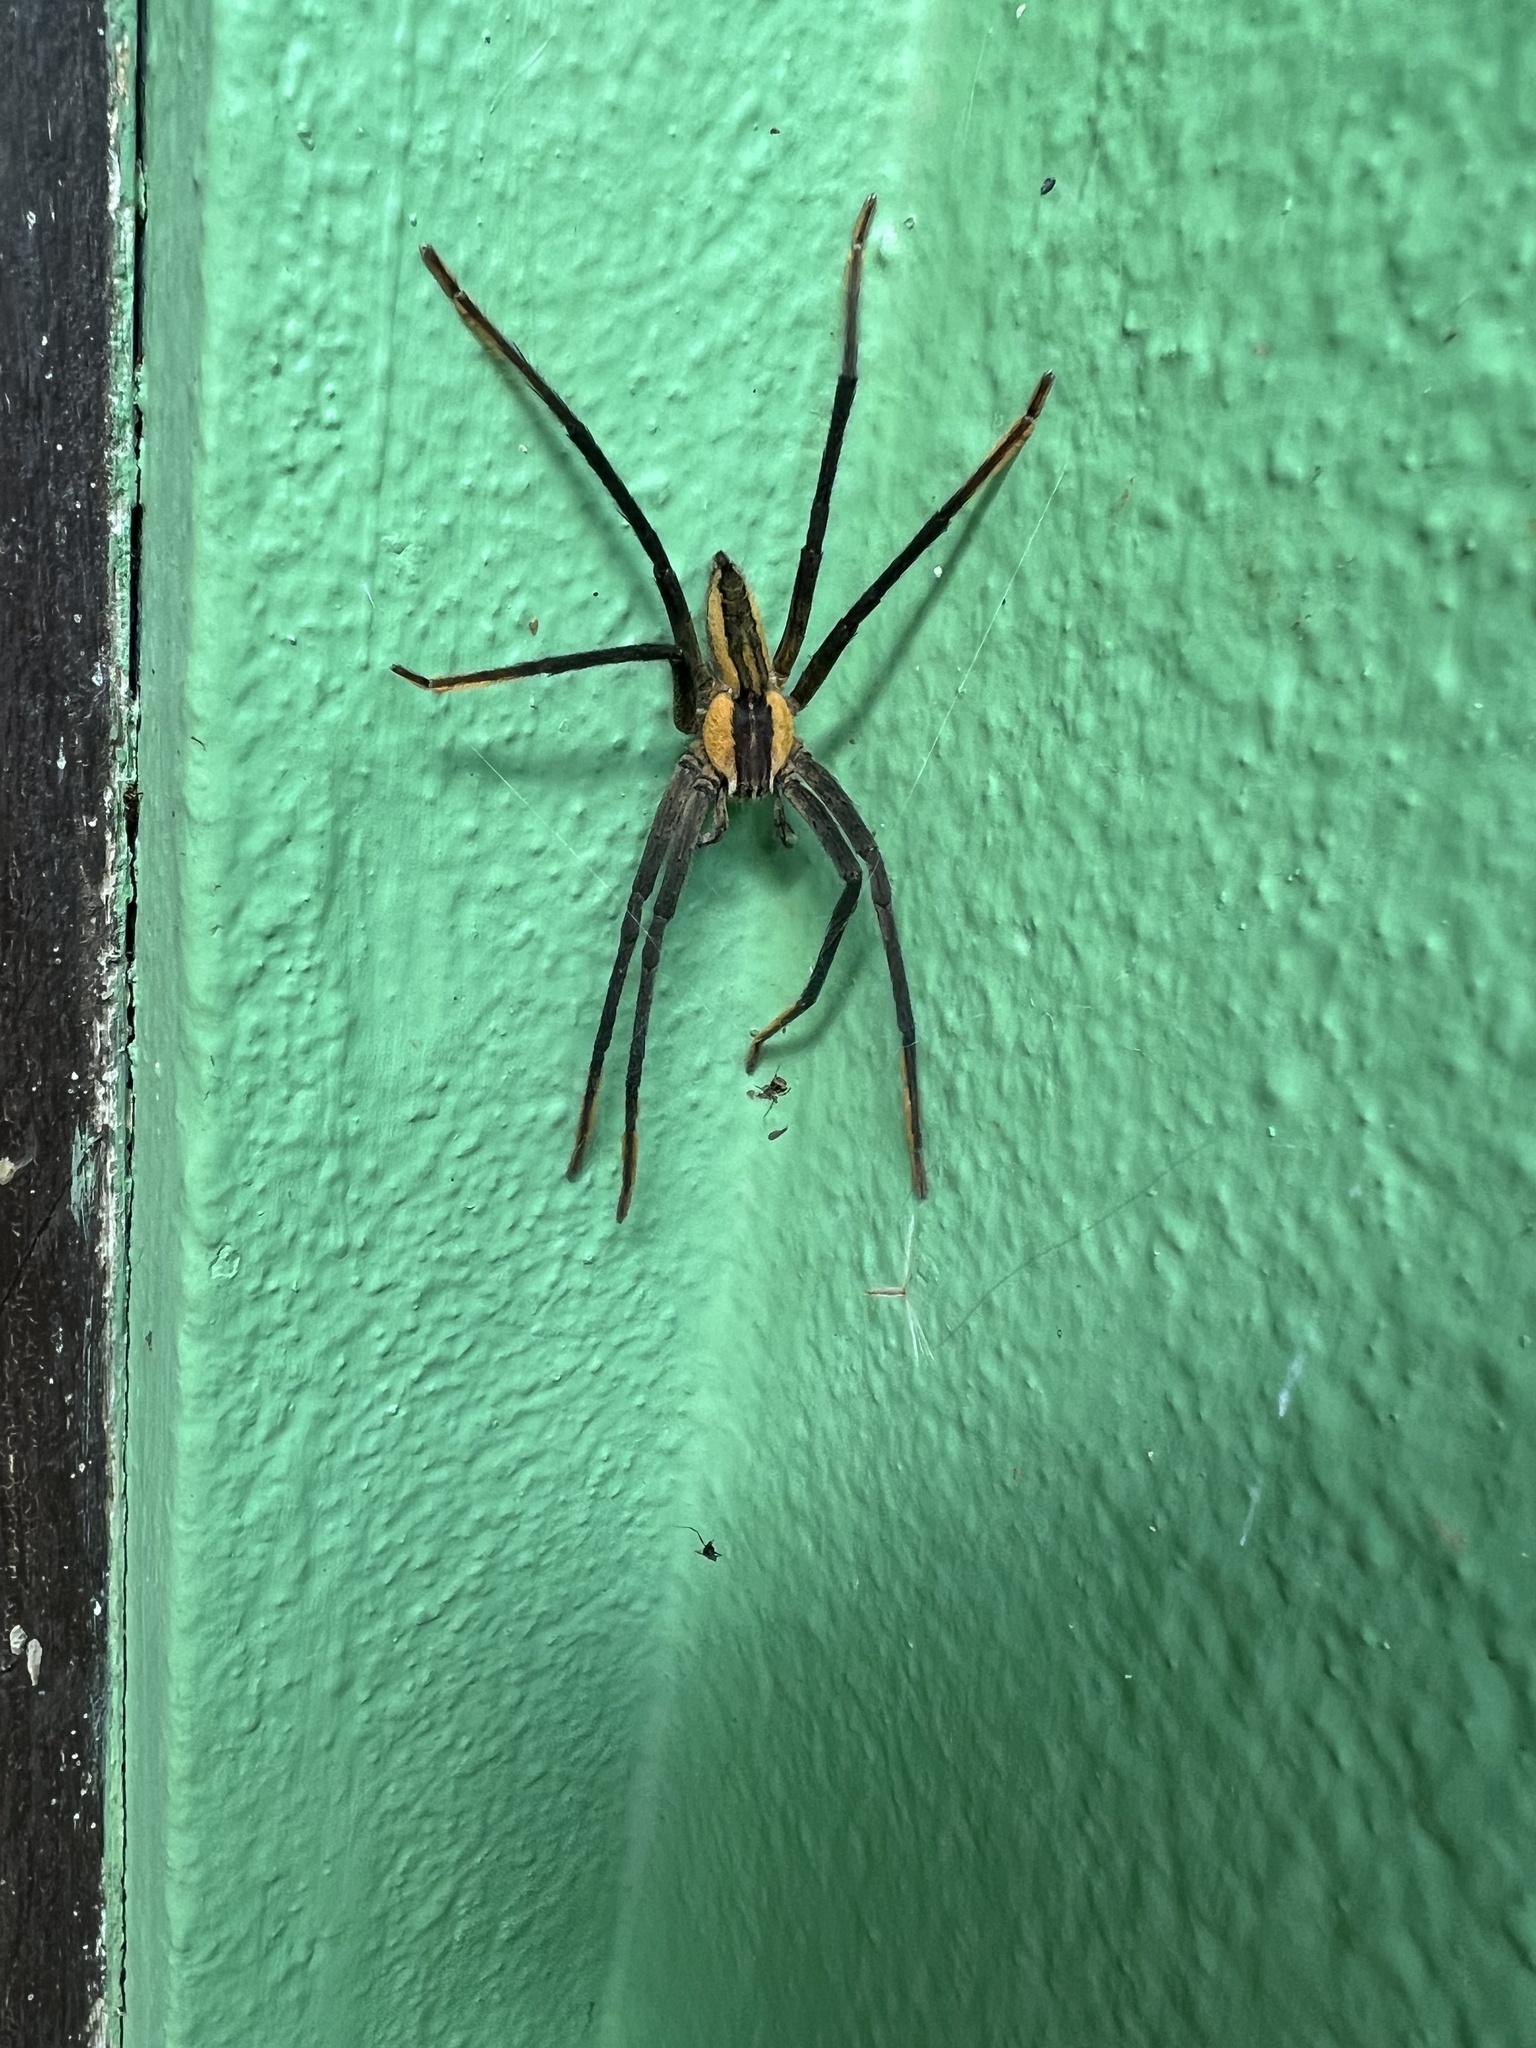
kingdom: Animalia
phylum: Arthropoda
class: Arachnida
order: Araneae
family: Trechaleidae
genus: Cupiennius
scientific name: Cupiennius getazi
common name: Wandering spiders
